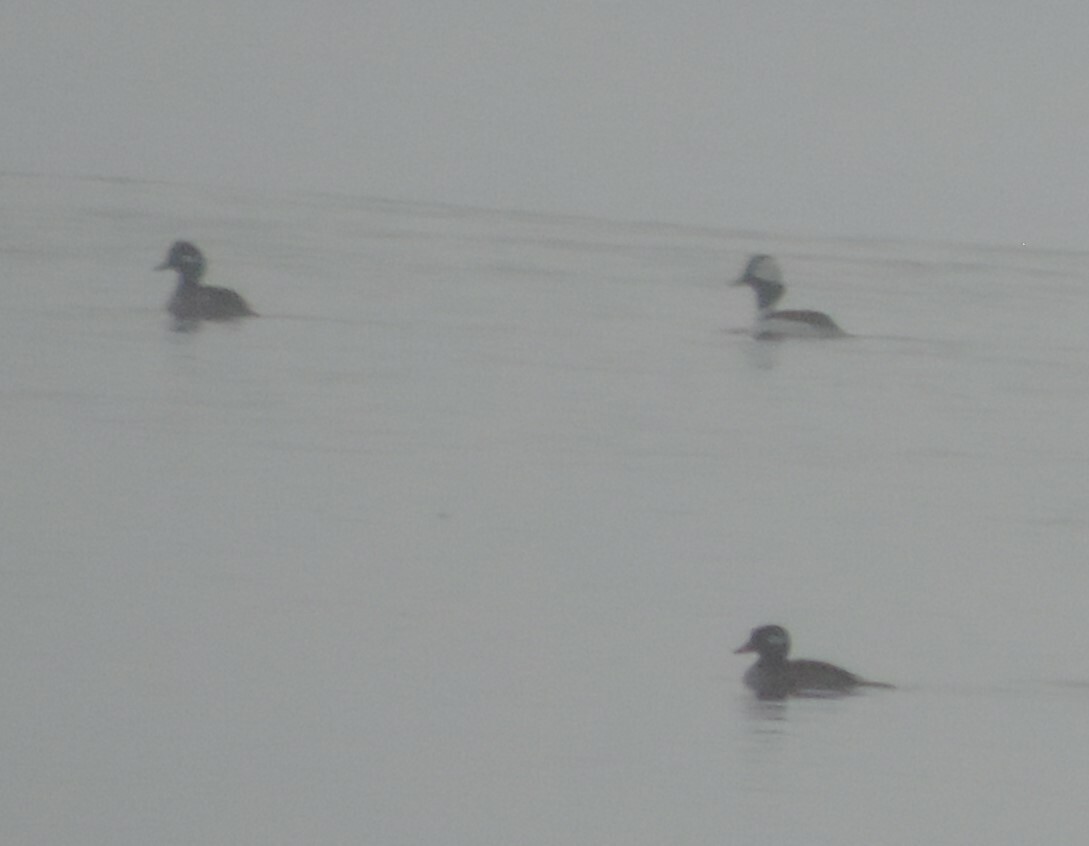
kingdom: Animalia
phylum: Chordata
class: Aves
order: Anseriformes
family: Anatidae
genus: Bucephala
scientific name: Bucephala albeola
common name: Bufflehead
